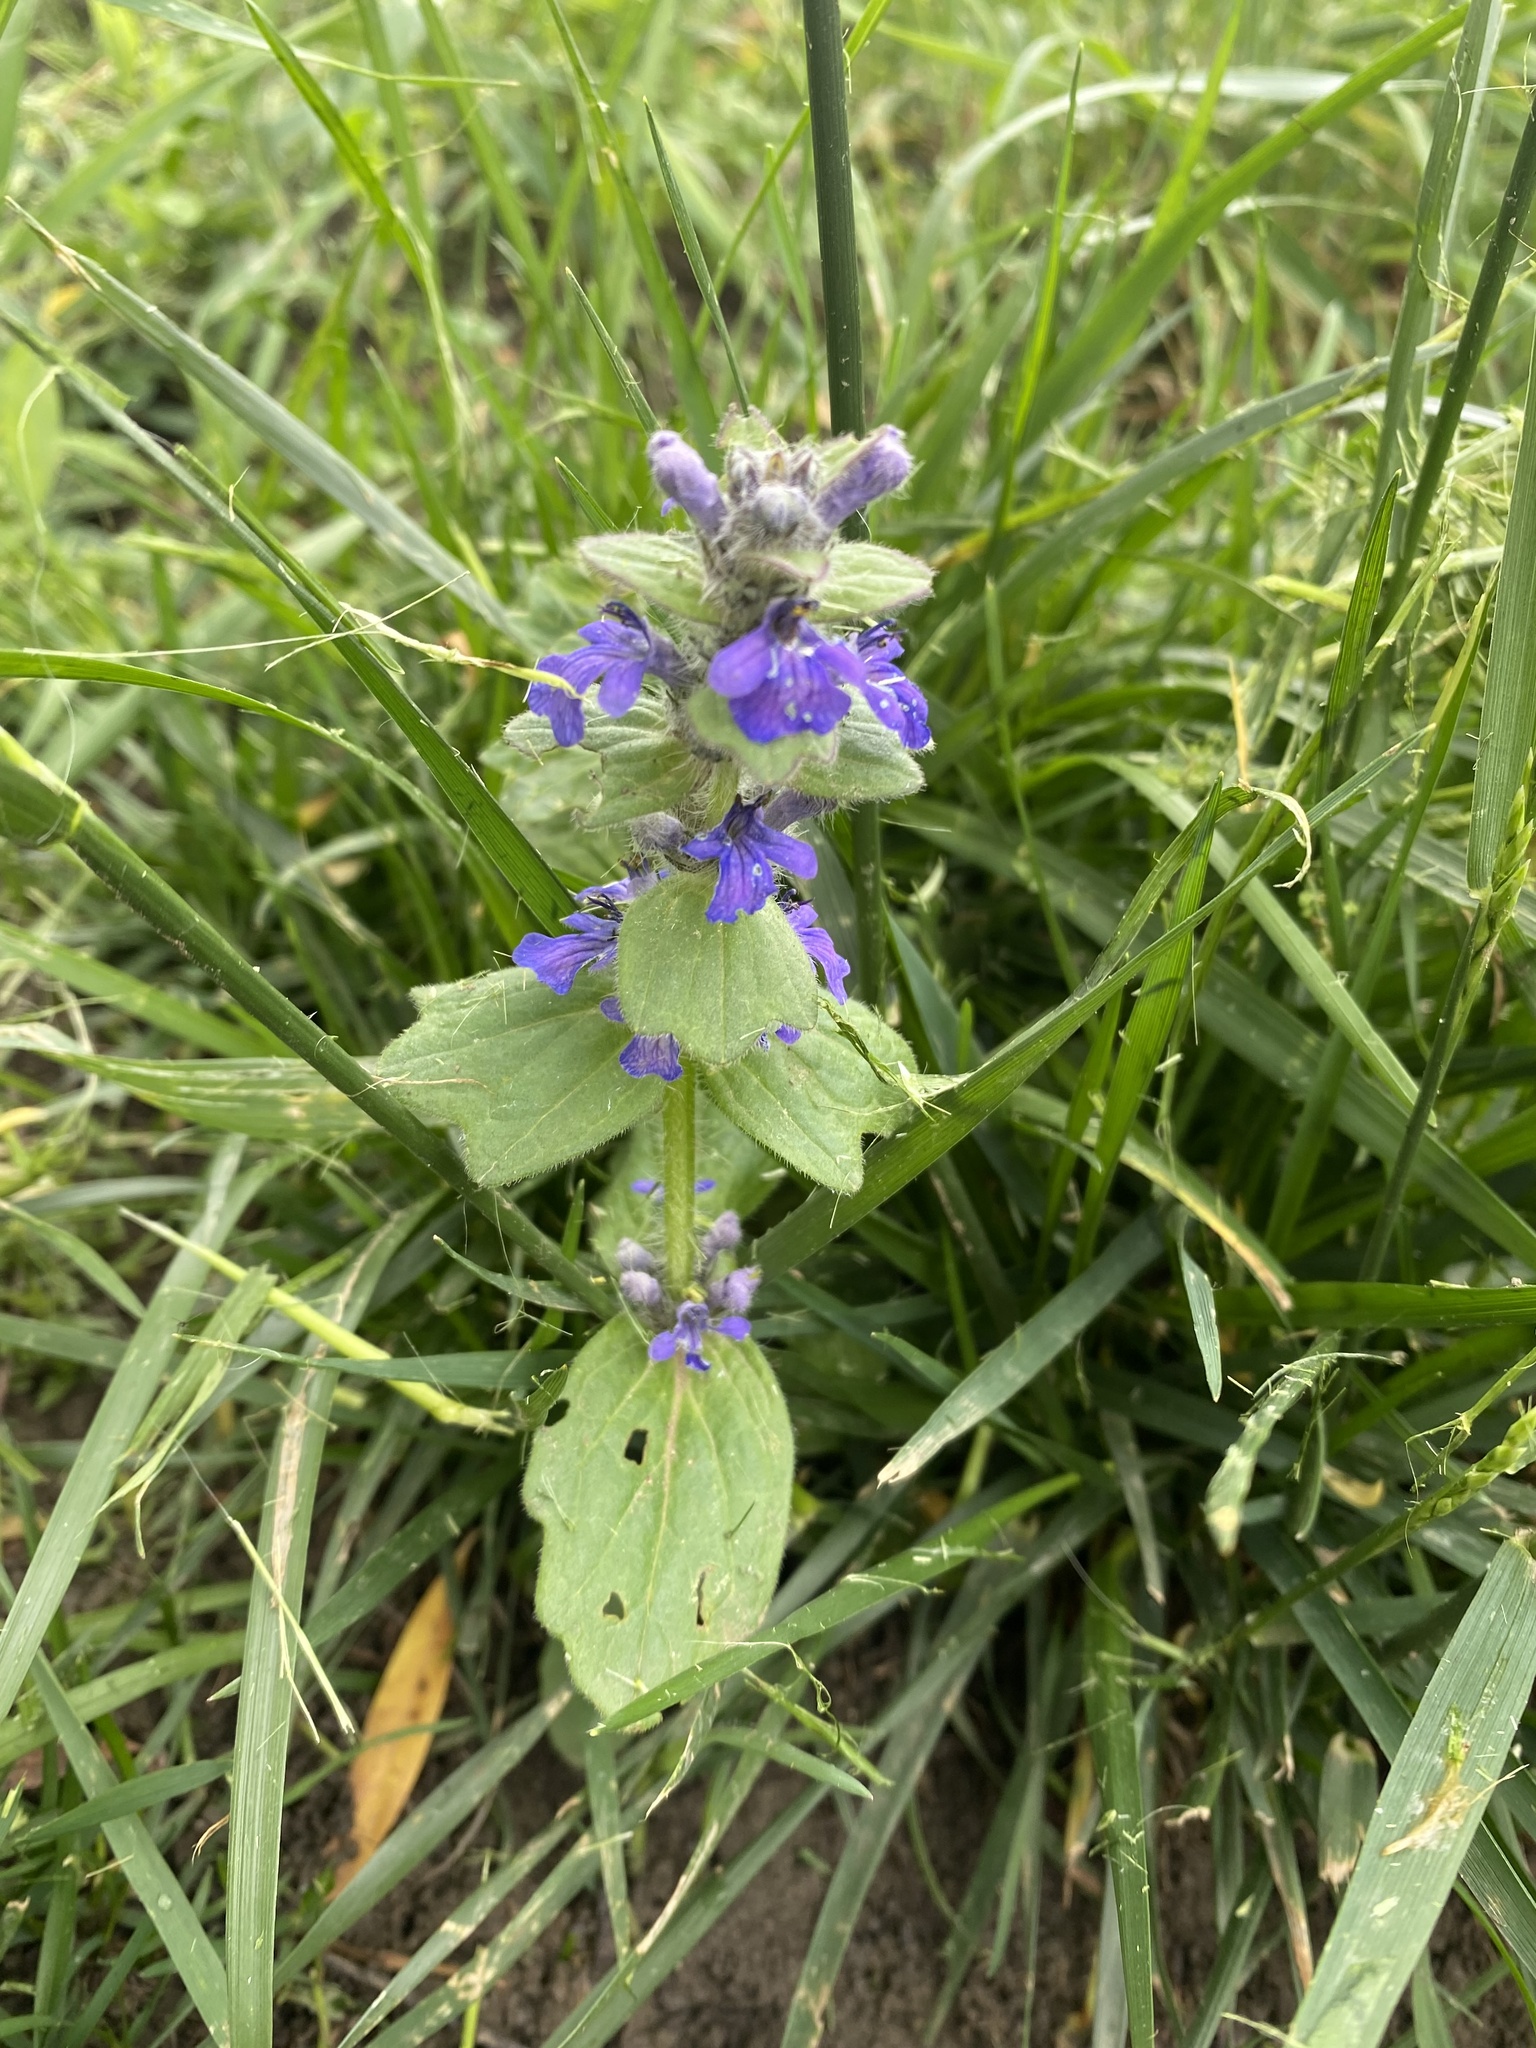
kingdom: Plantae
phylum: Tracheophyta
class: Magnoliopsida
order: Lamiales
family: Lamiaceae
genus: Ajuga
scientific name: Ajuga genevensis
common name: Blue bugle
